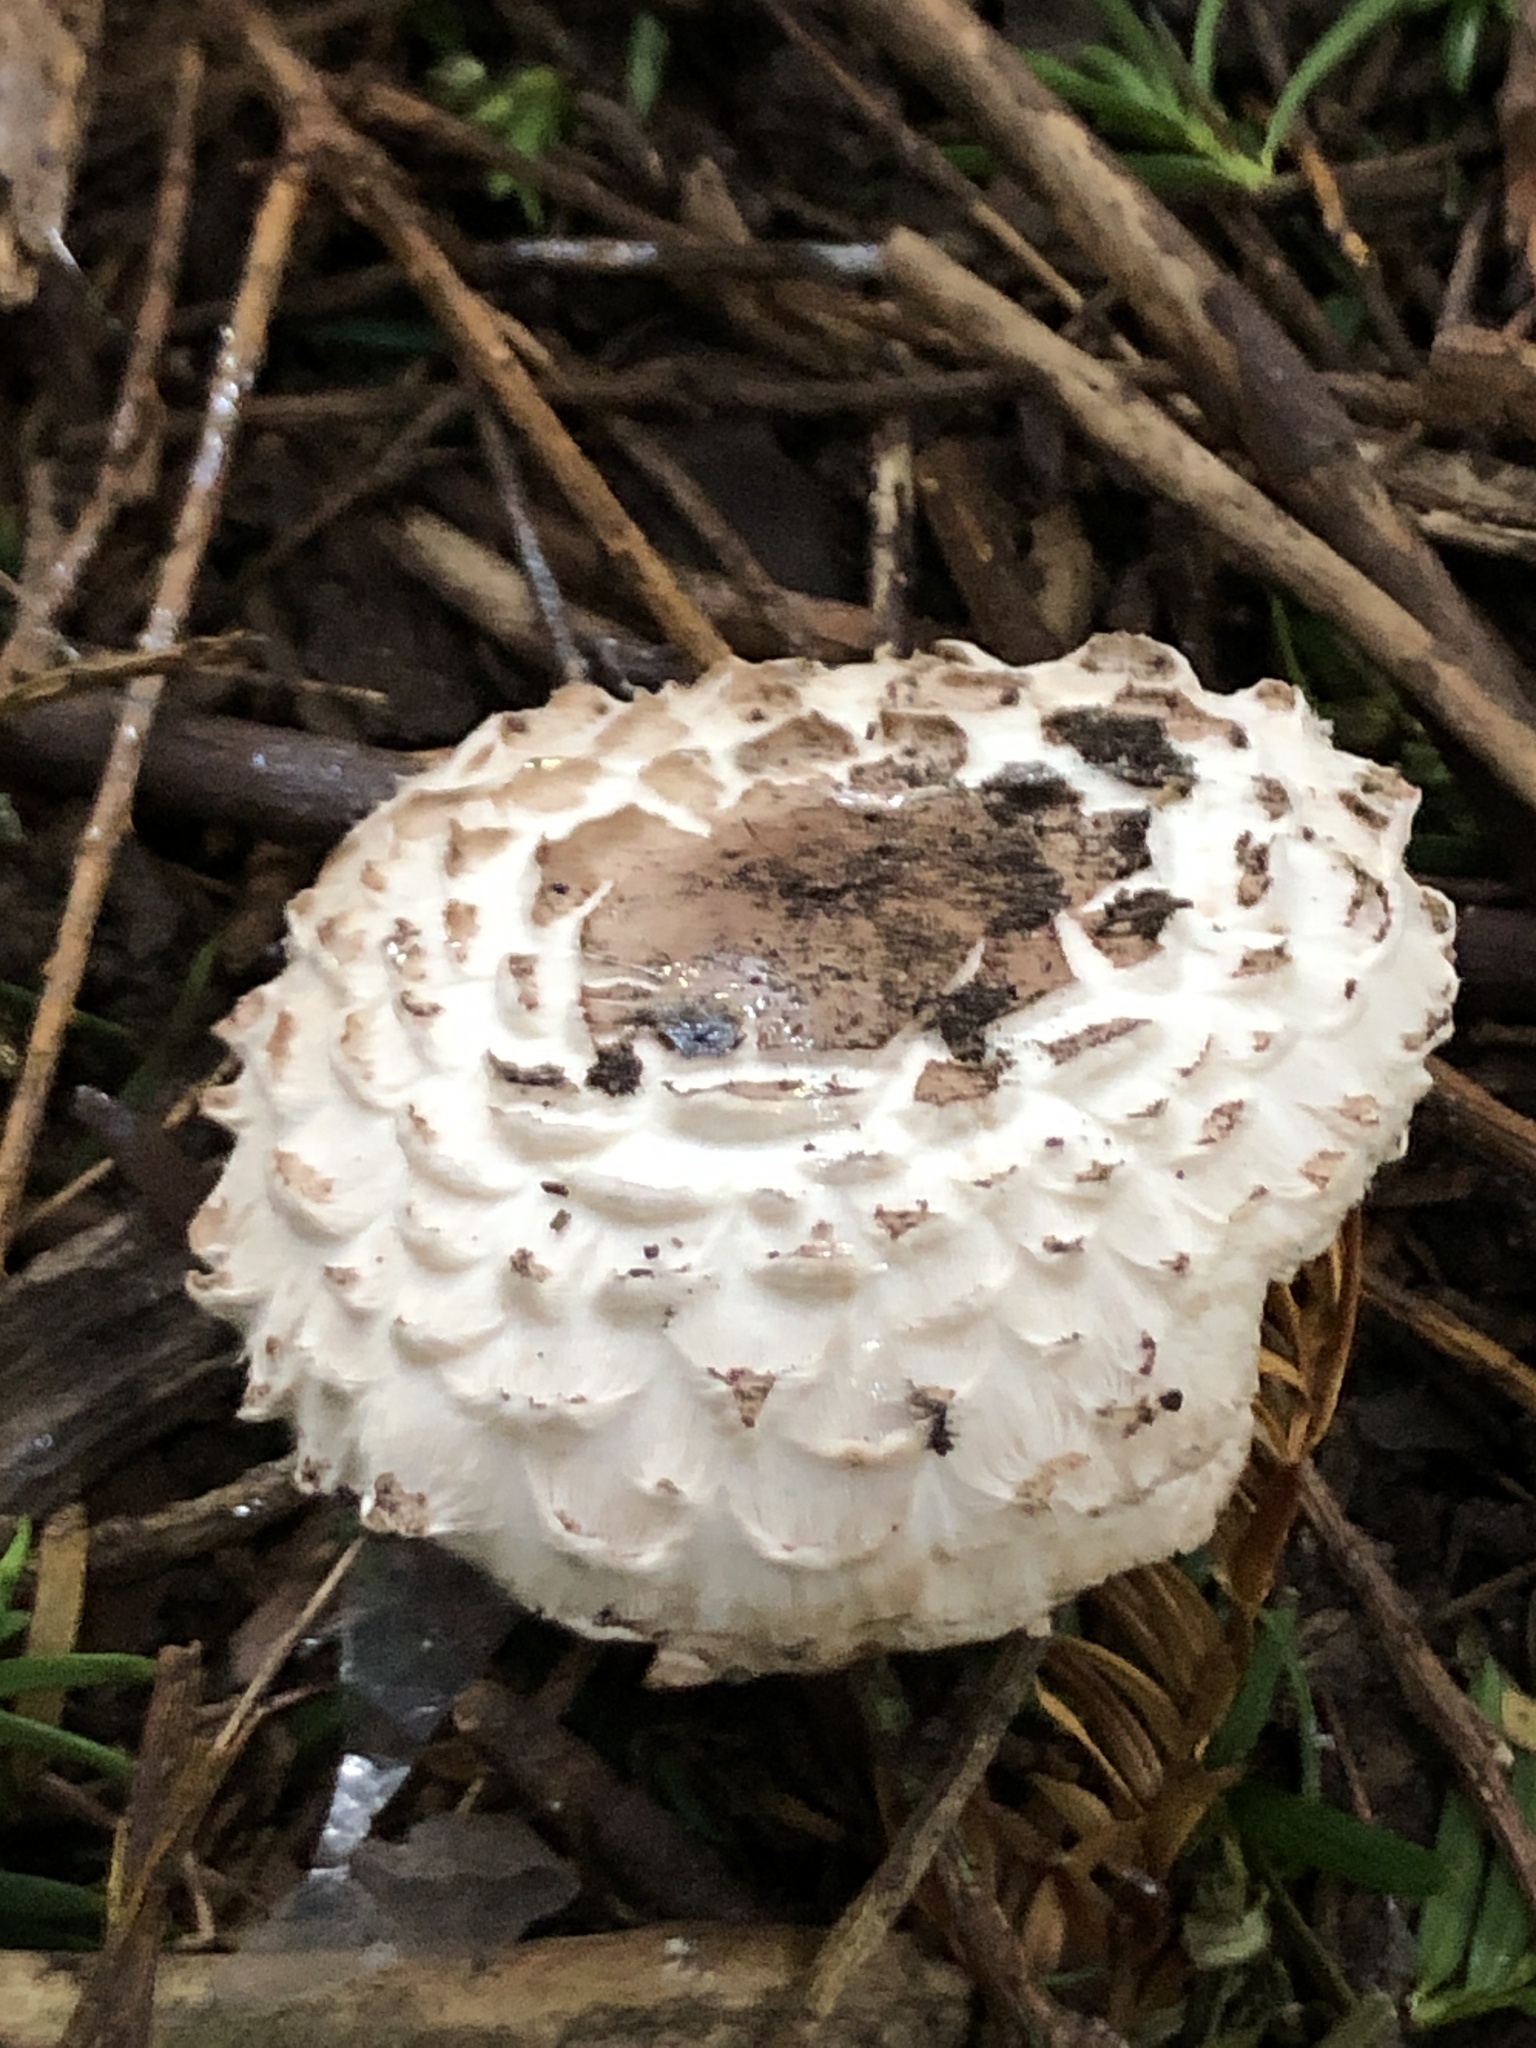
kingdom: Fungi
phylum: Basidiomycota
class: Agaricomycetes
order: Agaricales
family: Agaricaceae
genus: Chlorophyllum
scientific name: Chlorophyllum rhacodes
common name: Shaggy parasol
